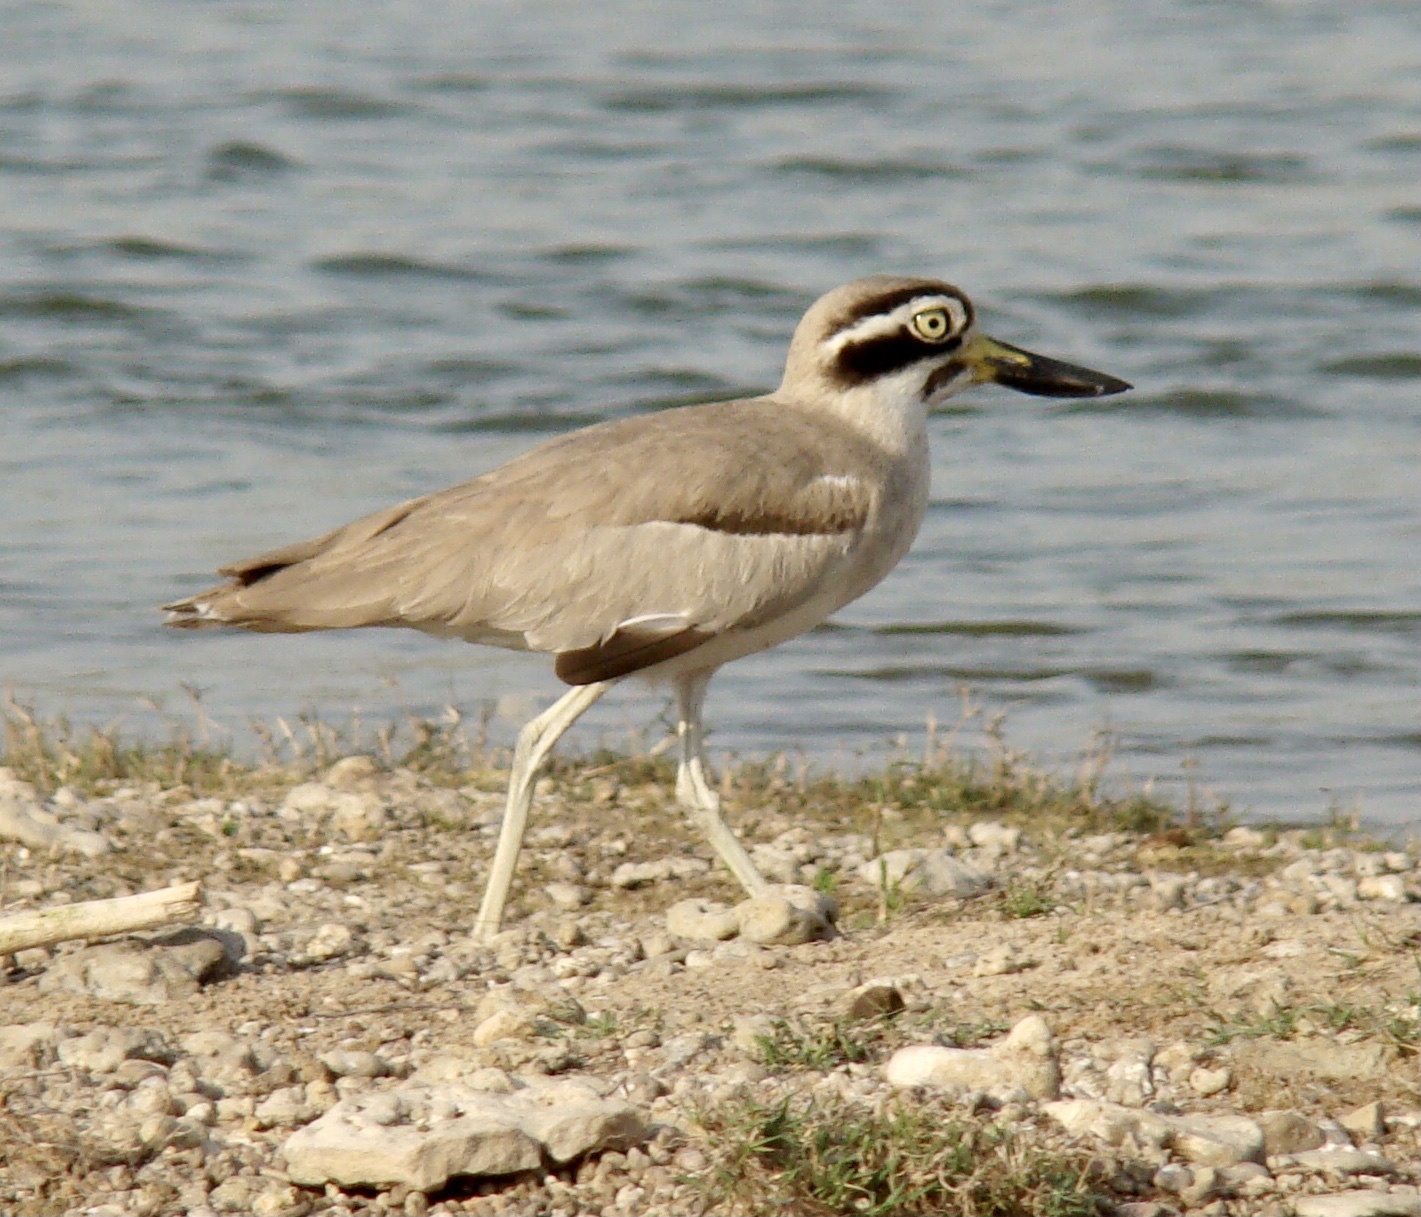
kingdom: Animalia
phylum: Chordata
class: Aves
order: Charadriiformes
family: Burhinidae
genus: Esacus
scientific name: Esacus recurvirostris
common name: Great stone-curlew
